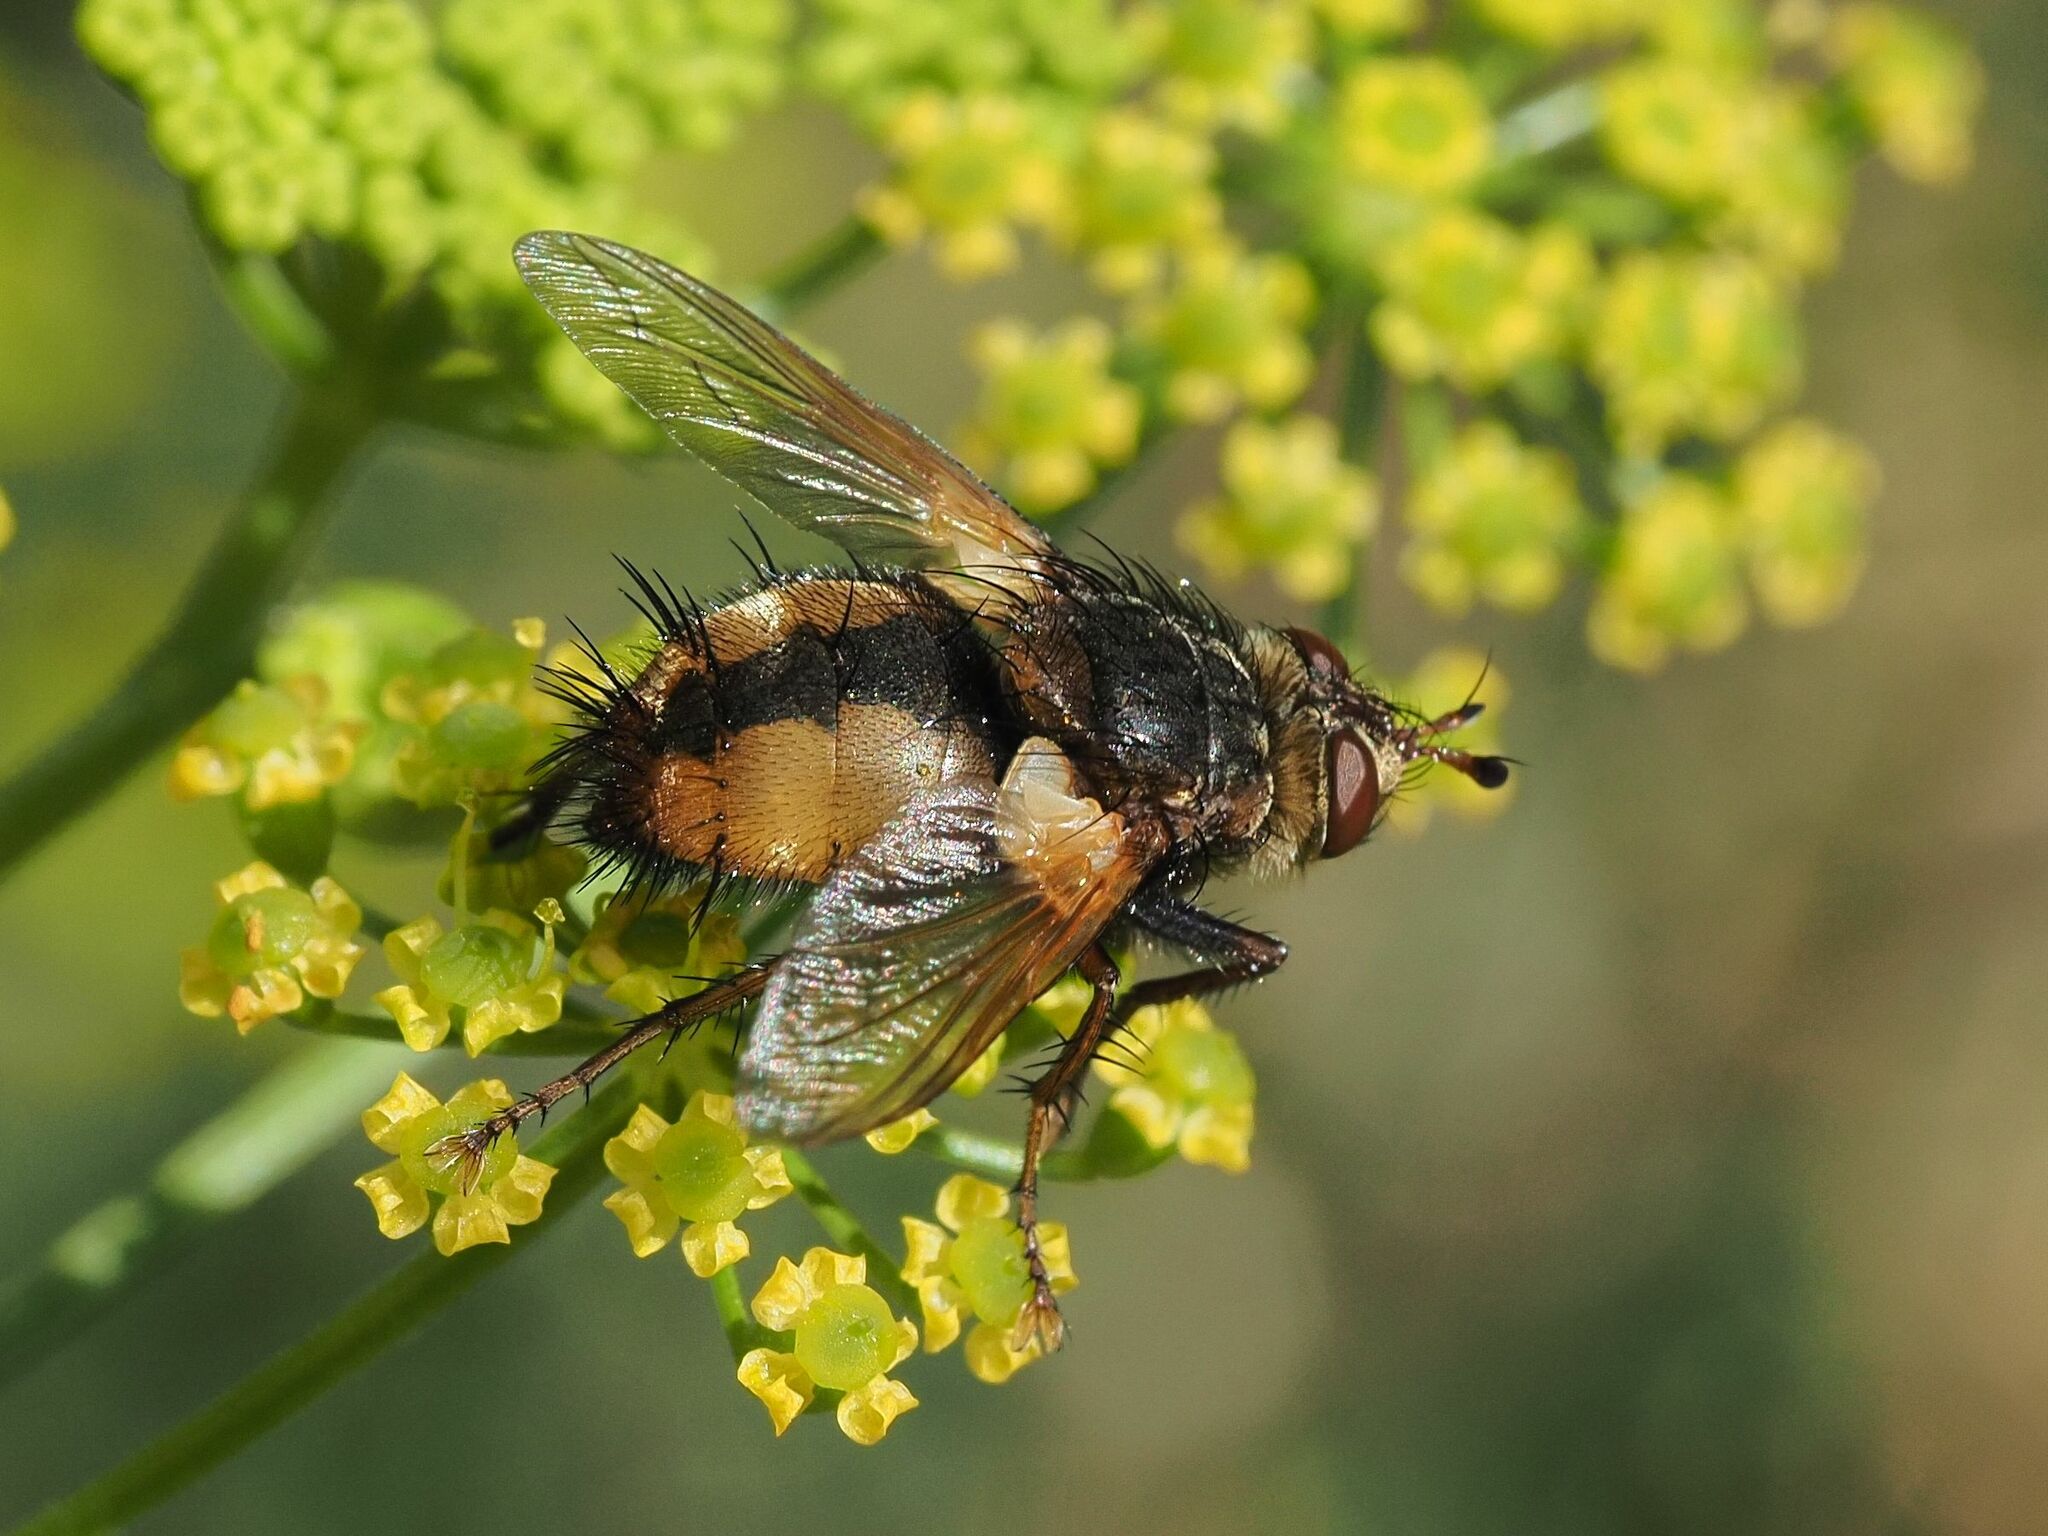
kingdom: Animalia
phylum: Arthropoda
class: Insecta
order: Diptera
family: Tachinidae
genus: Tachina
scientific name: Tachina fera
